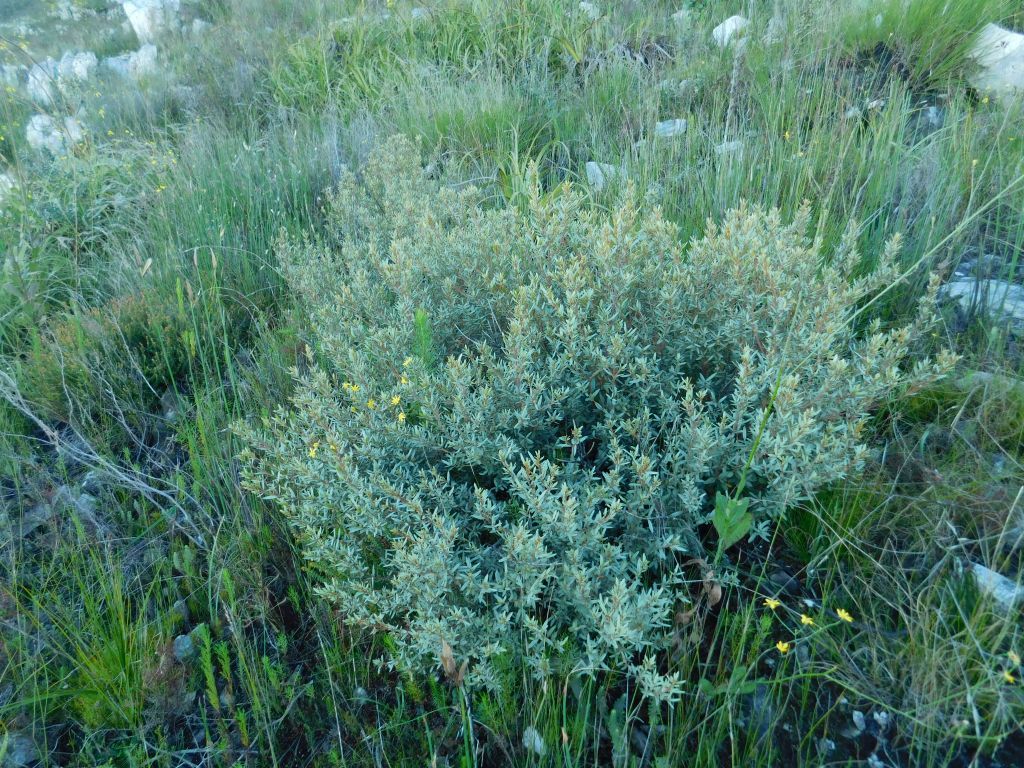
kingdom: Plantae
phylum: Tracheophyta
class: Magnoliopsida
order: Cornales
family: Grubbiaceae
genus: Grubbia
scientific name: Grubbia tomentosa
